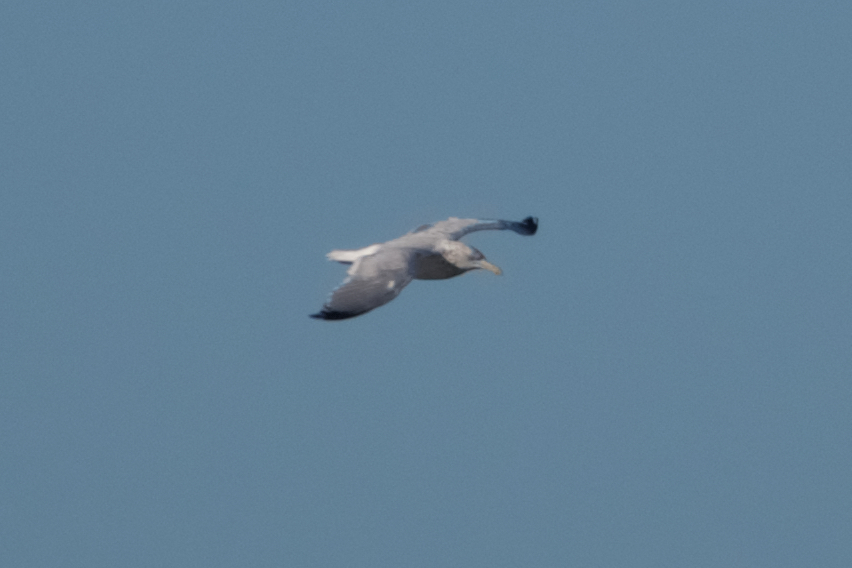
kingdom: Animalia
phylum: Chordata
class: Aves
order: Charadriiformes
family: Laridae
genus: Larus
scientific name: Larus argentatus
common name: Herring gull
